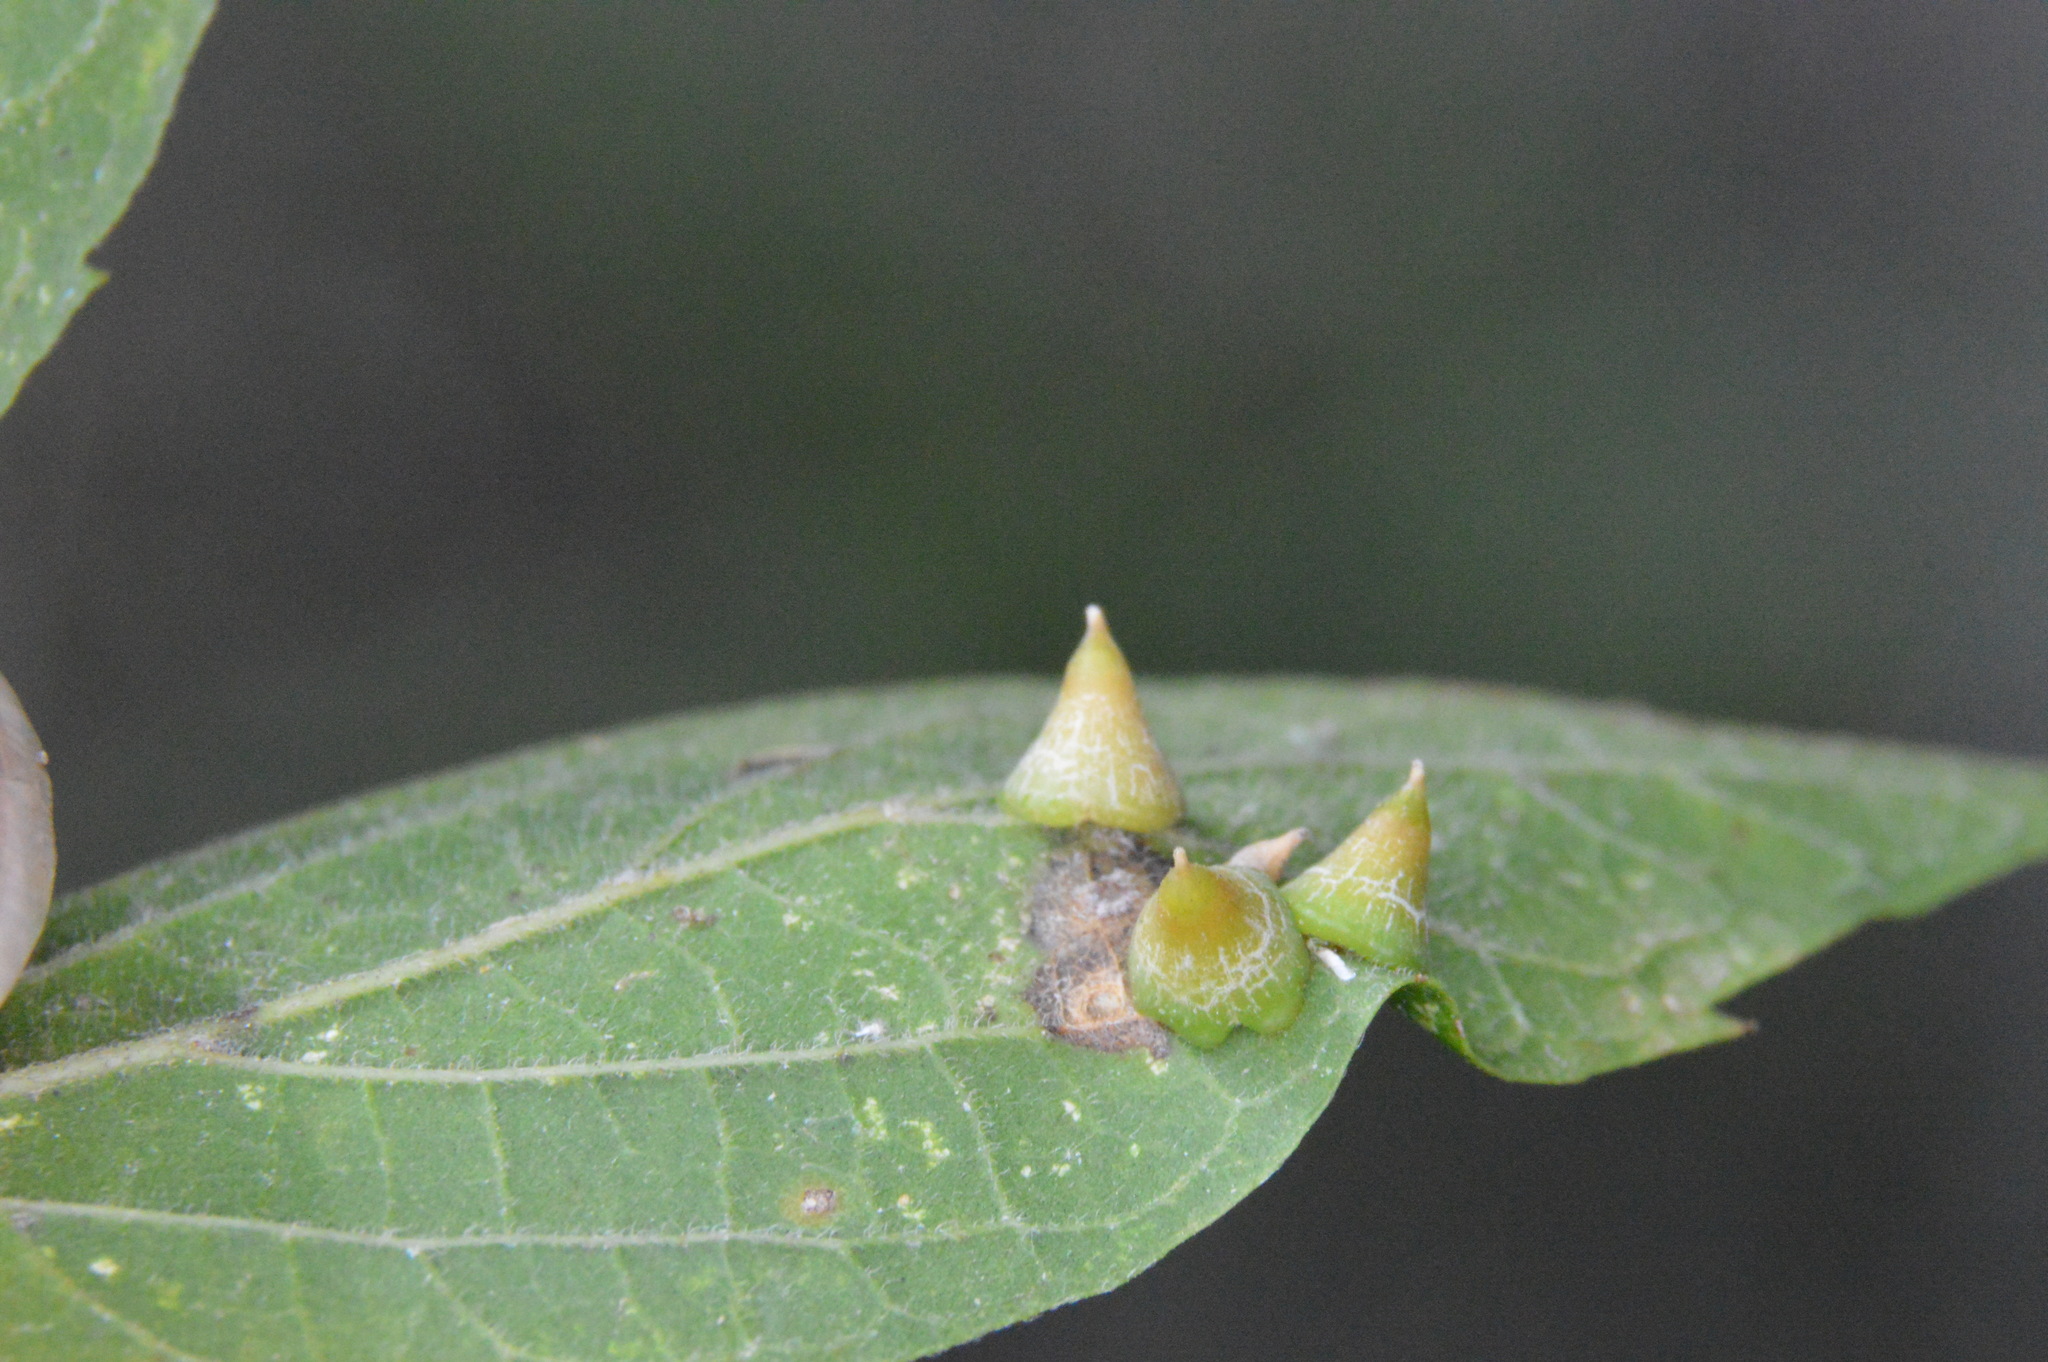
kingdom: Animalia
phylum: Arthropoda
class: Insecta
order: Diptera
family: Cecidomyiidae
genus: Celticecis
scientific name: Celticecis spiniformis
